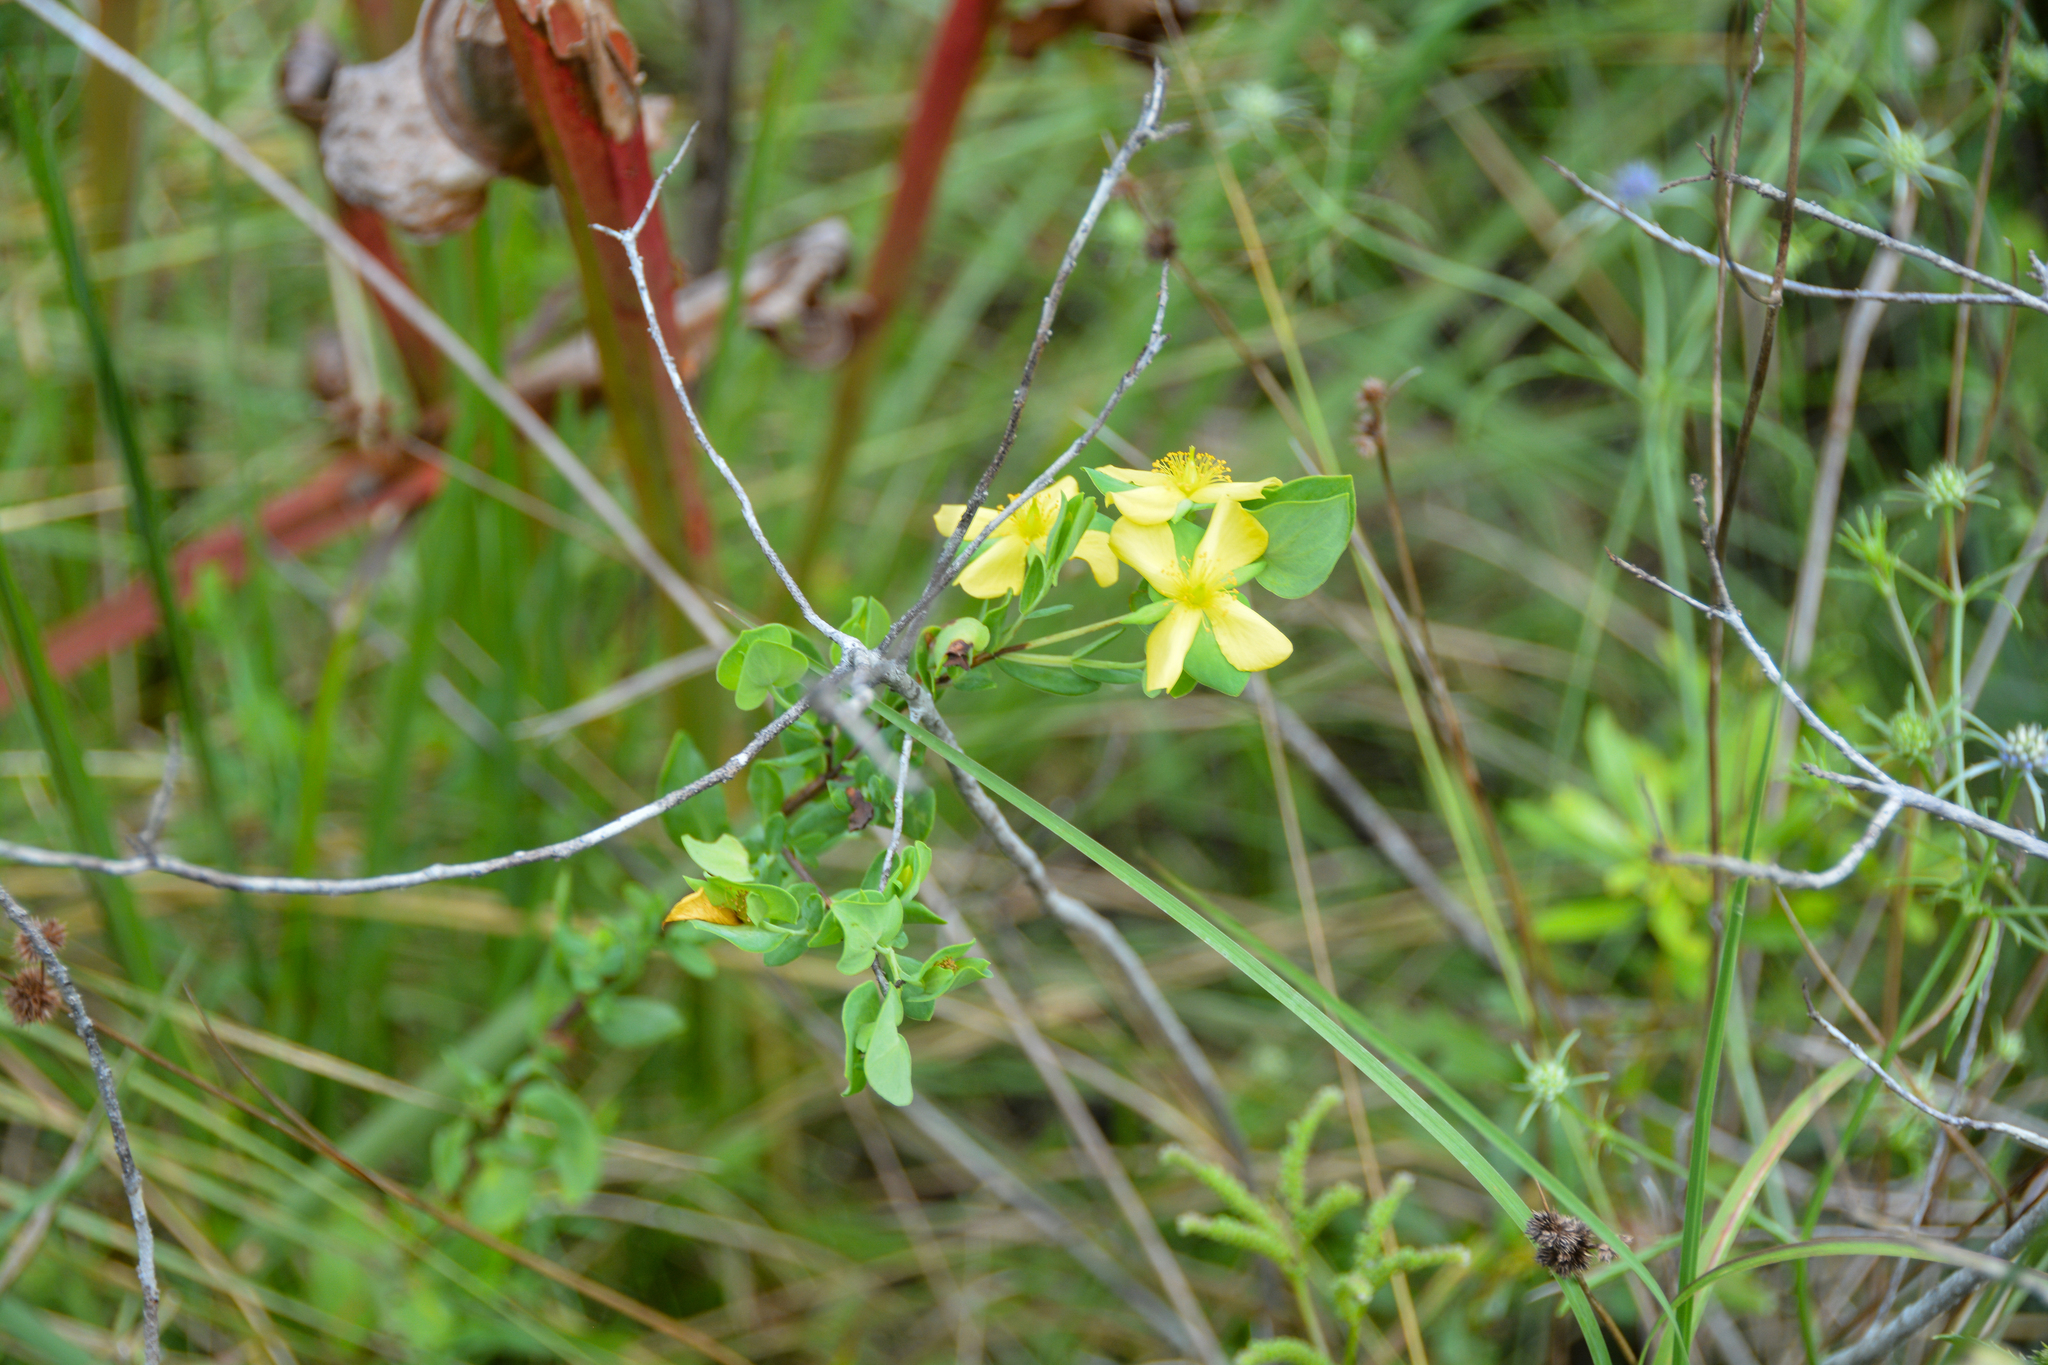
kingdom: Plantae
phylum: Tracheophyta
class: Magnoliopsida
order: Malpighiales
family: Hypericaceae
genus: Hypericum
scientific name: Hypericum crux-andreae
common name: St.-peter's-wort
